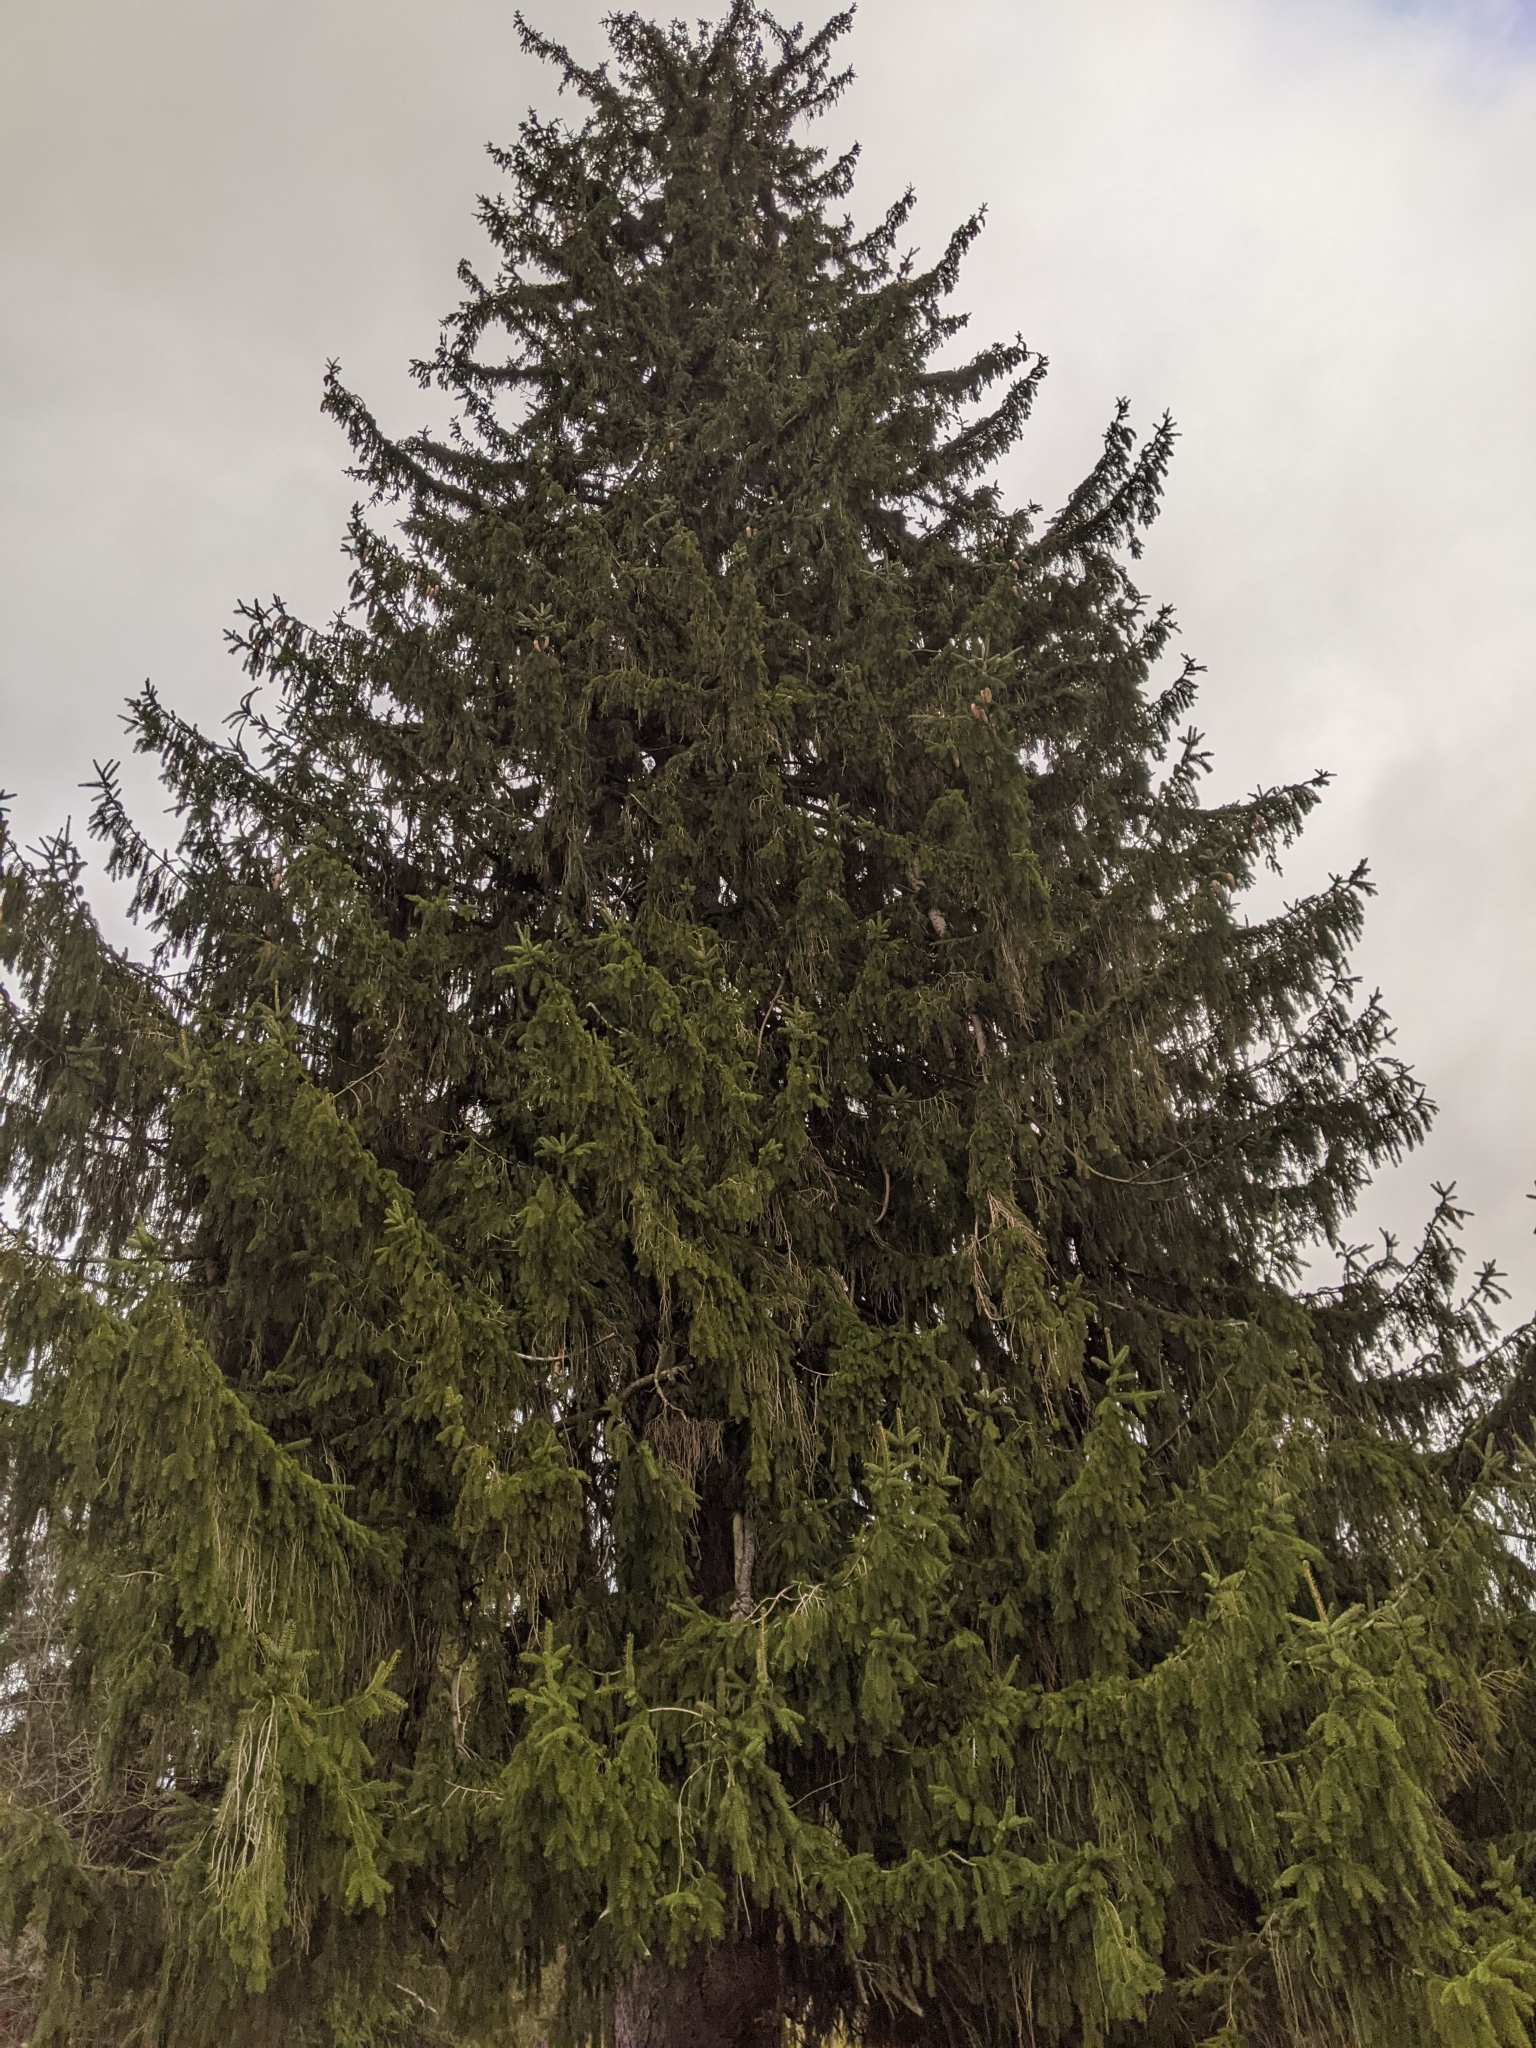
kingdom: Plantae
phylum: Tracheophyta
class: Pinopsida
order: Pinales
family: Pinaceae
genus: Picea
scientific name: Picea abies
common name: Norway spruce
